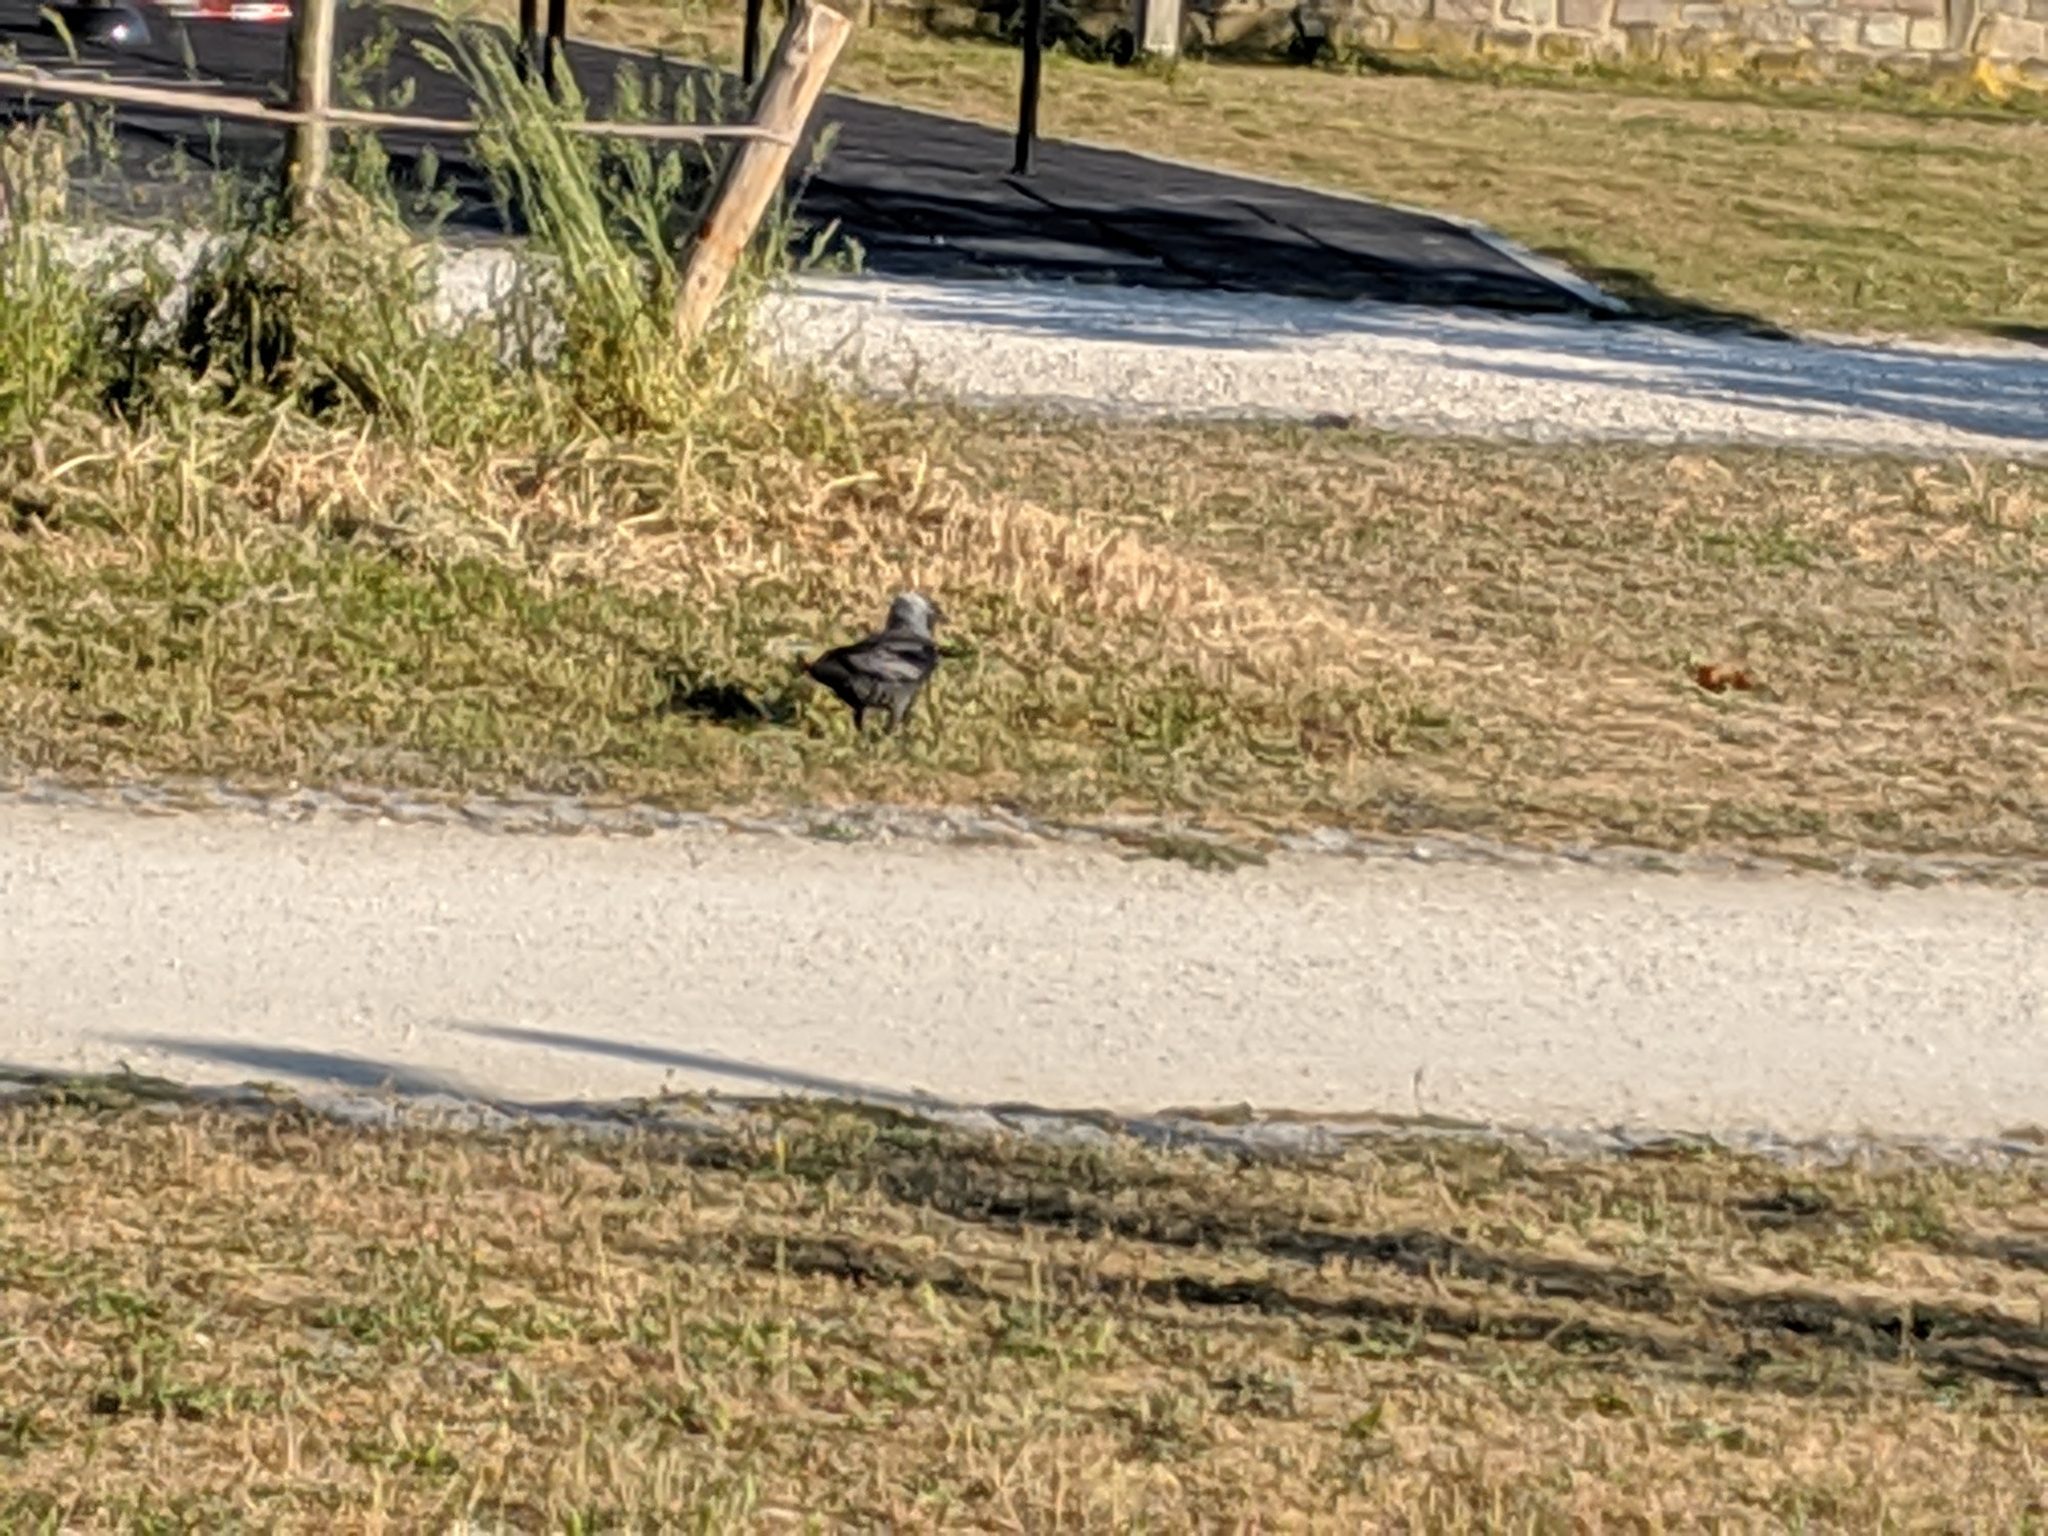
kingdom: Animalia
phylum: Chordata
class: Aves
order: Passeriformes
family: Corvidae
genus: Coloeus
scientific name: Coloeus monedula
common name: Western jackdaw
